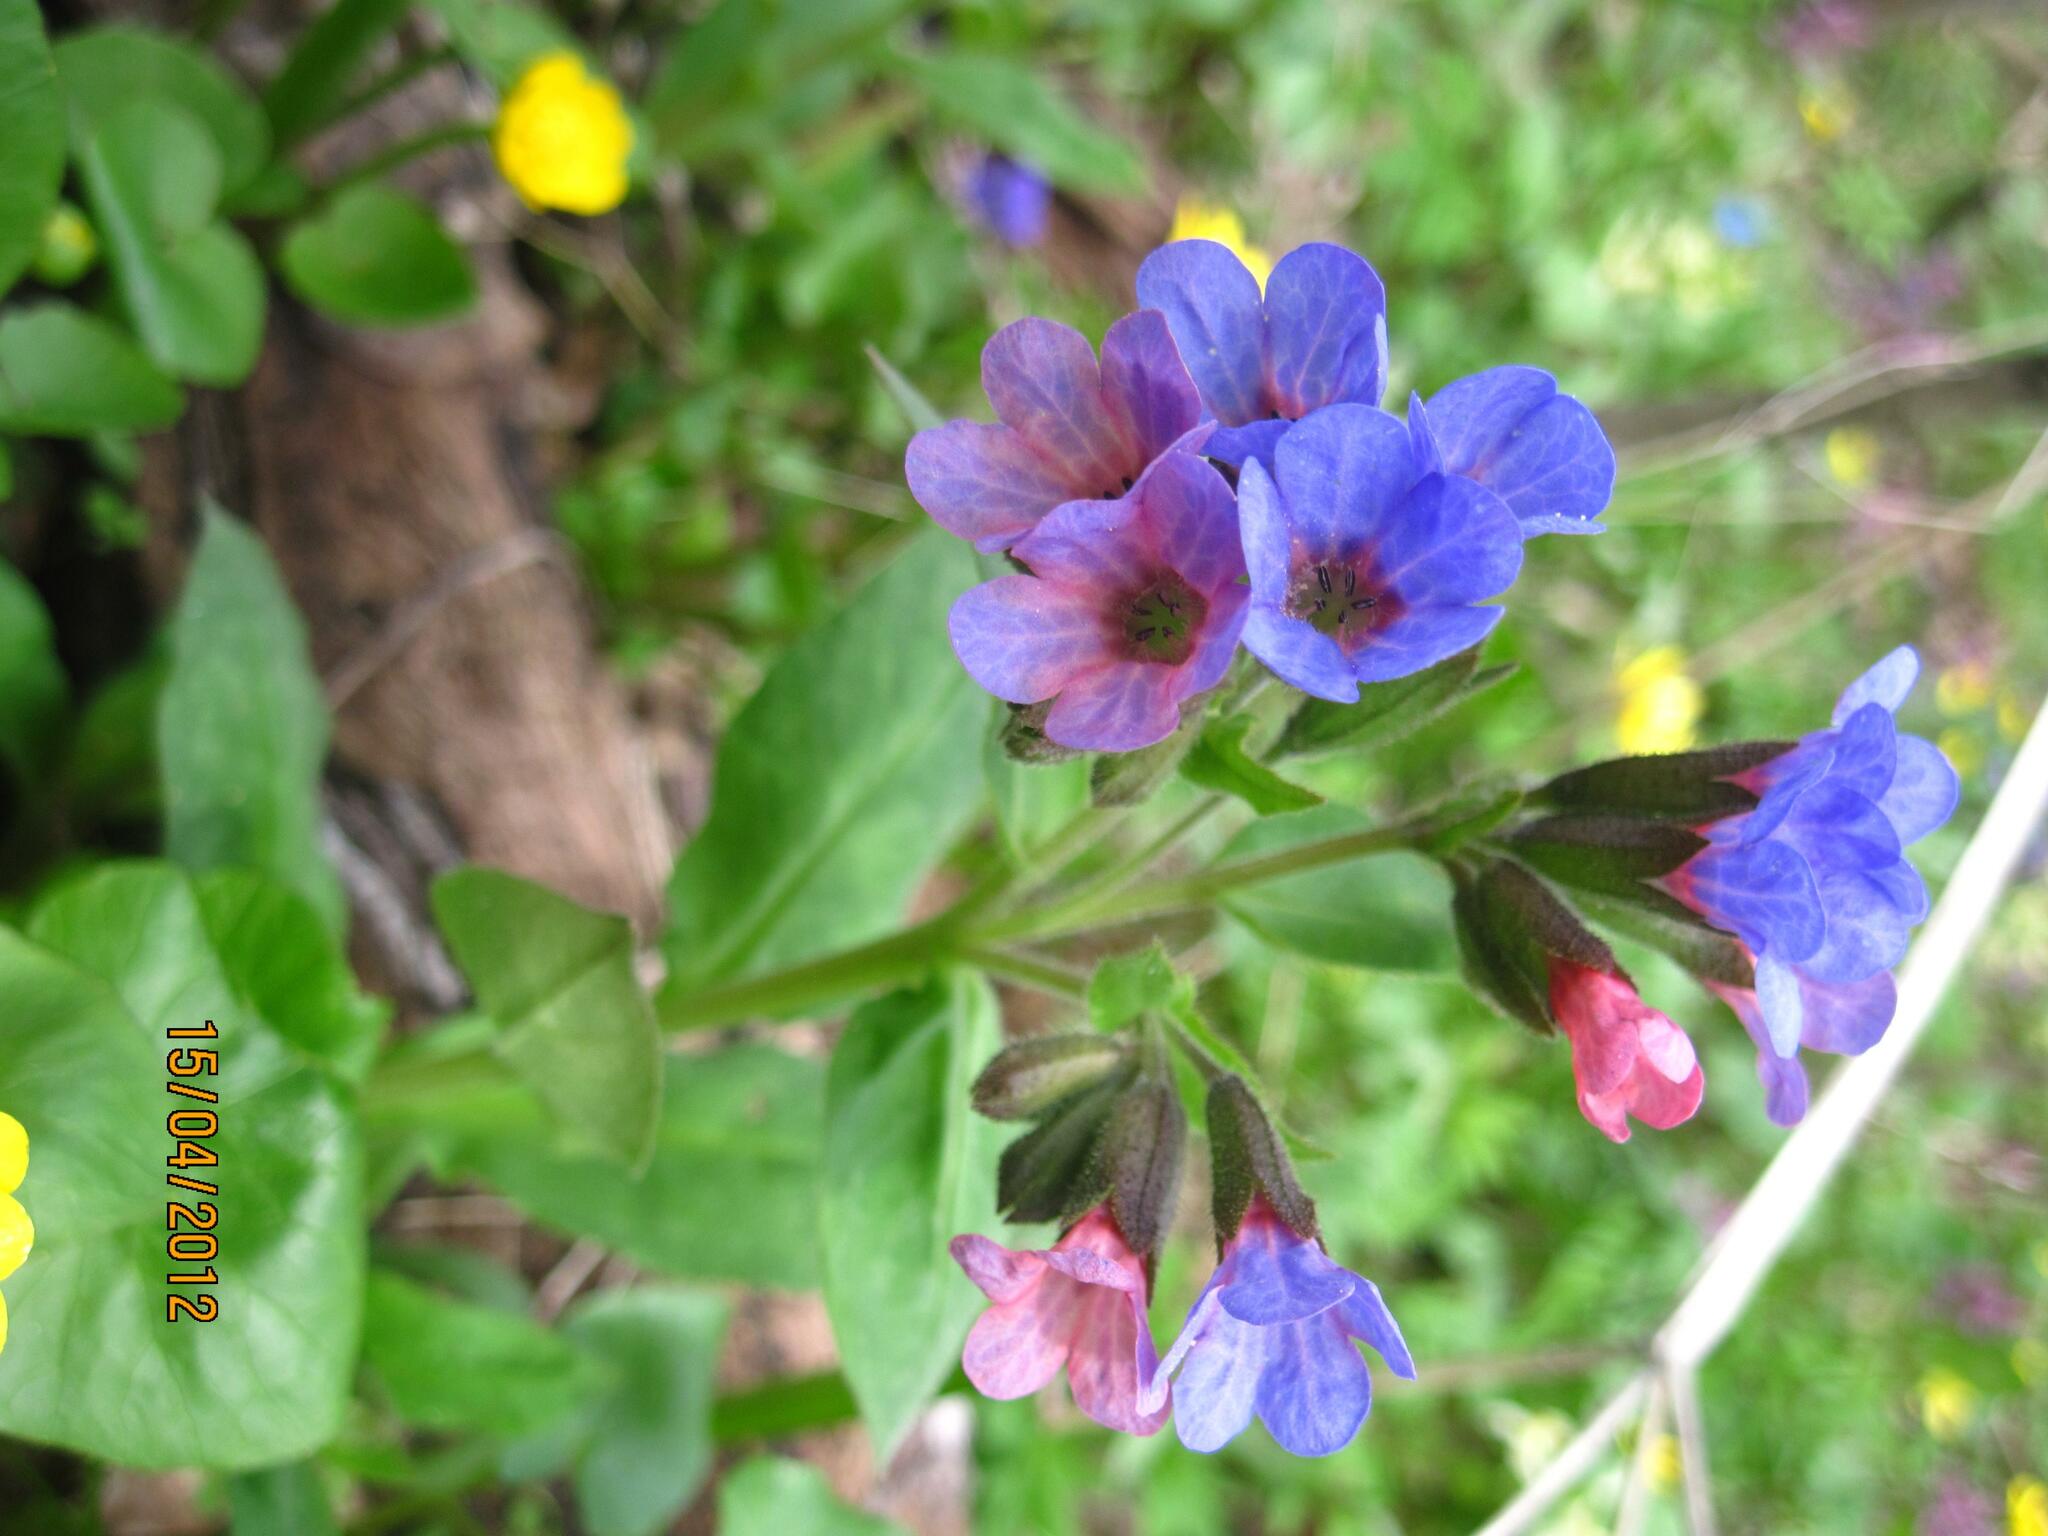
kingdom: Plantae
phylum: Tracheophyta
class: Magnoliopsida
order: Boraginales
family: Boraginaceae
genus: Pulmonaria
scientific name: Pulmonaria obscura
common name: Suffolk lungwort
